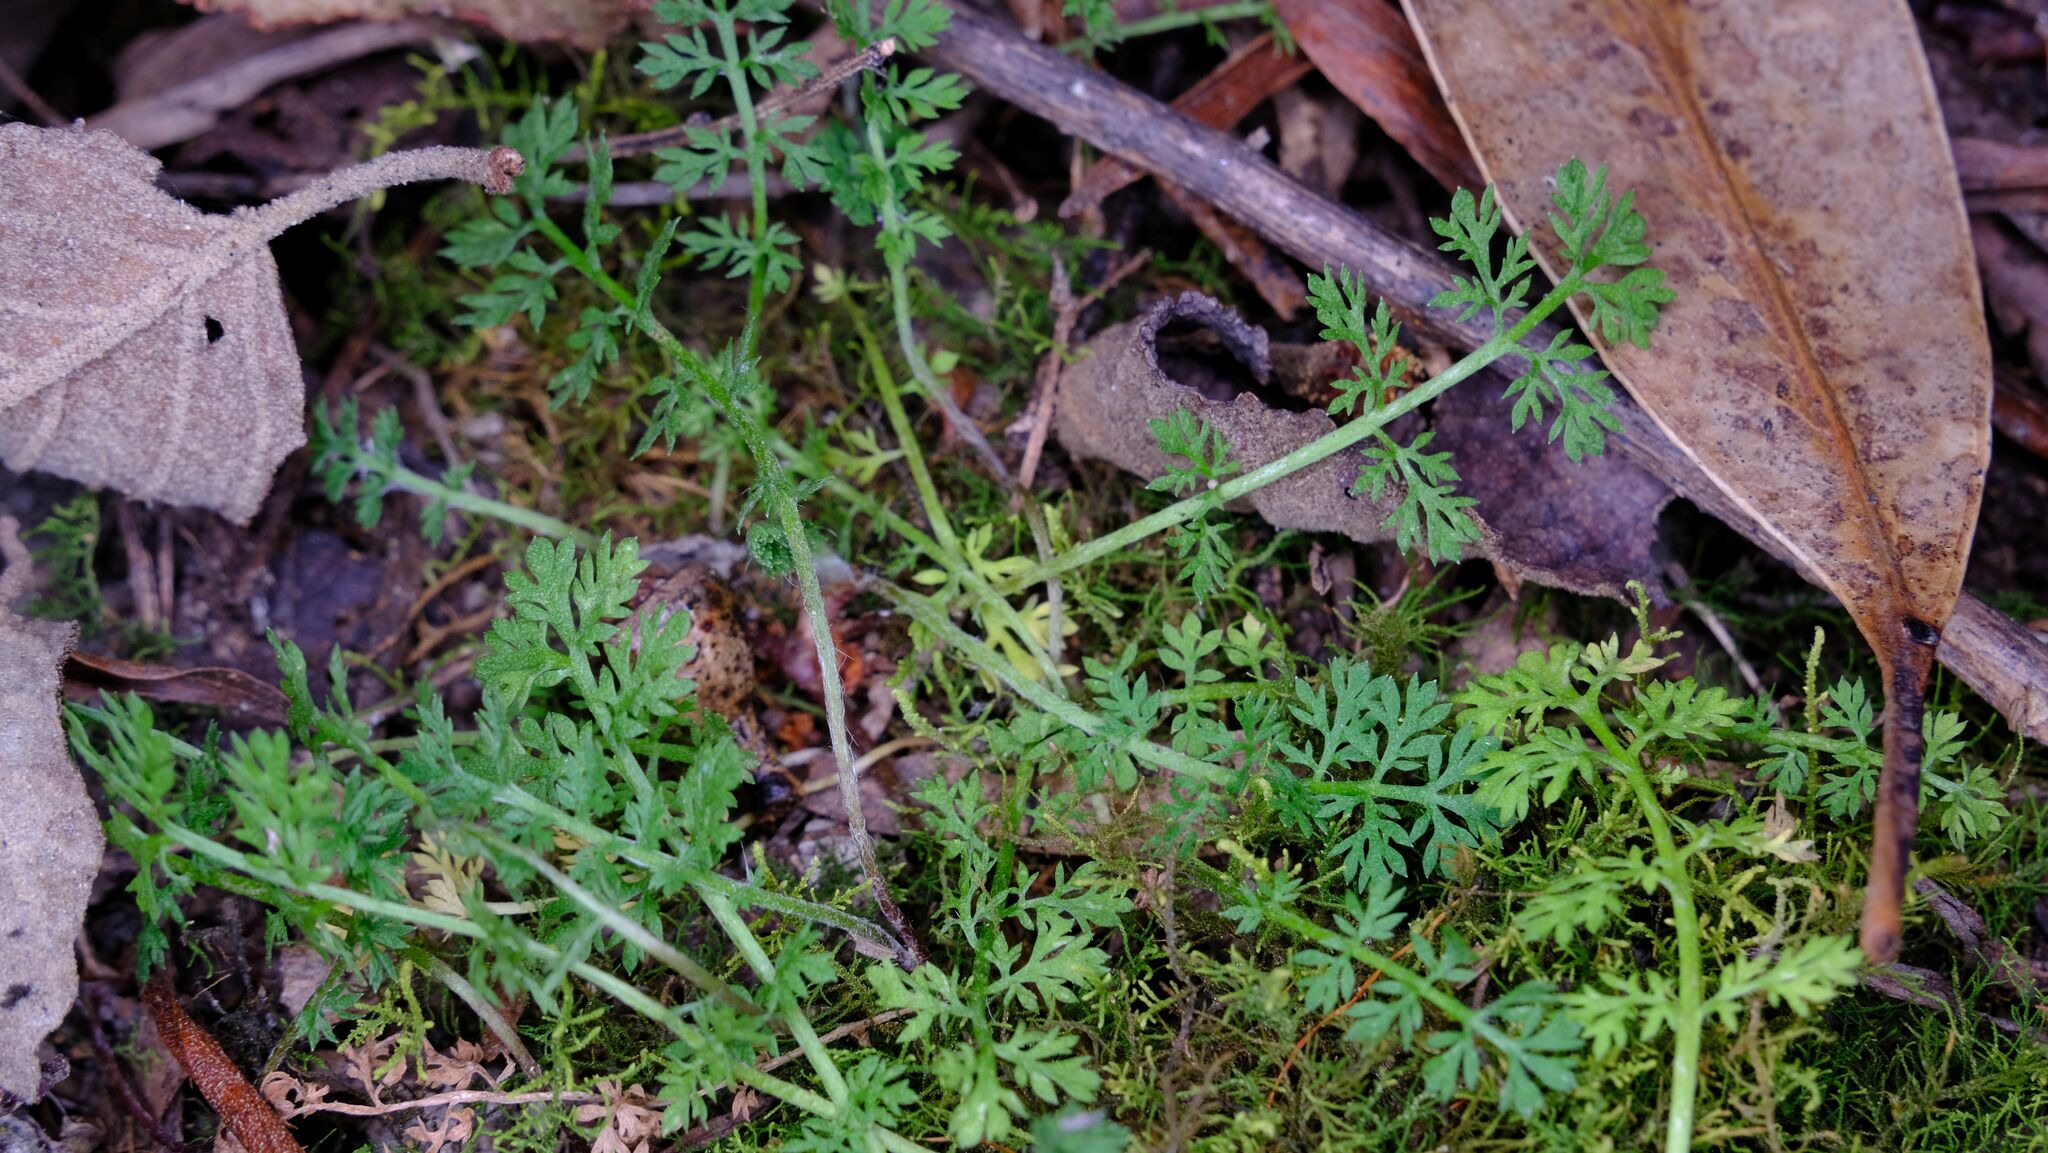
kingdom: Plantae
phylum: Tracheophyta
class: Magnoliopsida
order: Asterales
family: Asteraceae
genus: Cotula
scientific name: Cotula australis
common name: Australian waterbuttons
